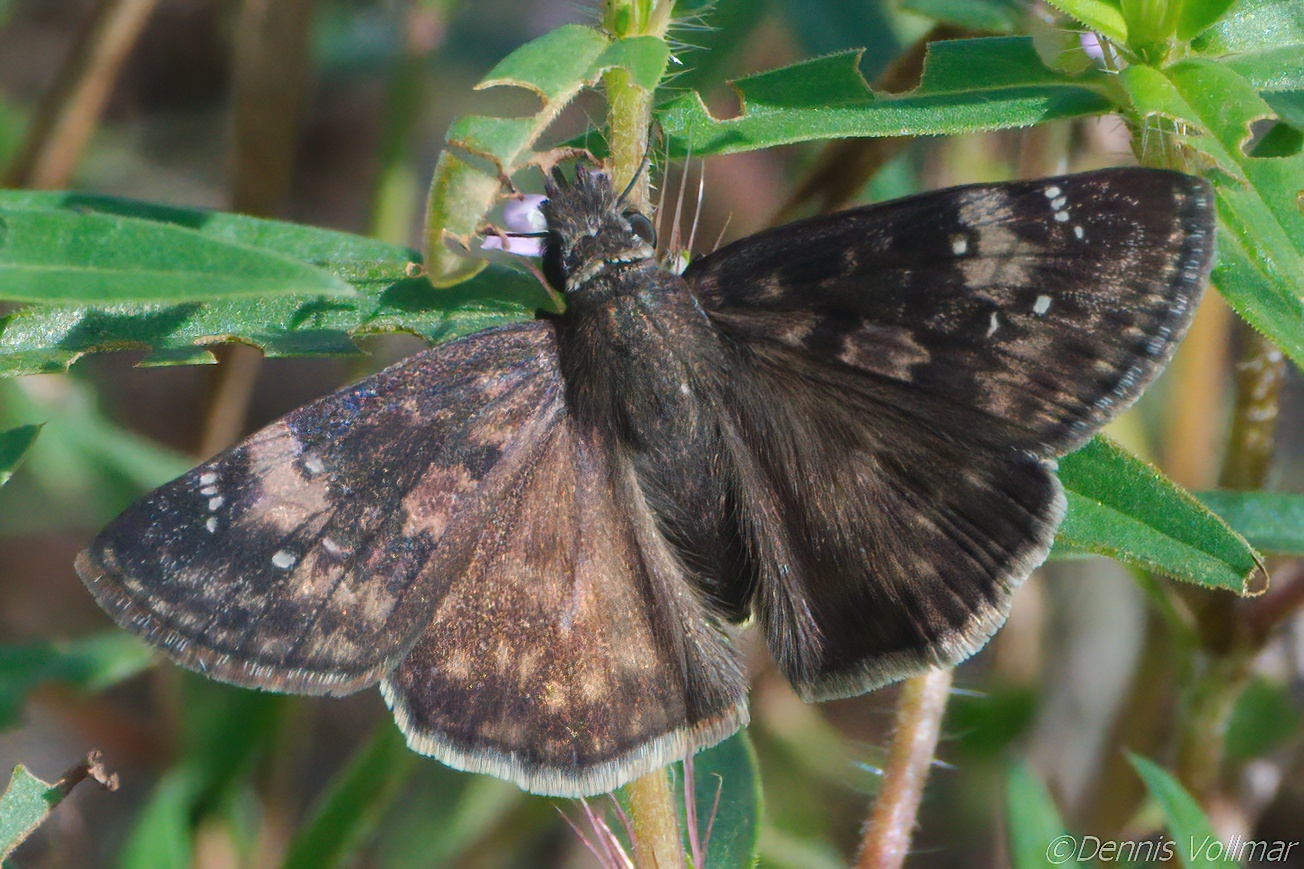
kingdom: Animalia
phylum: Arthropoda
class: Insecta
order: Lepidoptera
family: Hesperiidae
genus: Erynnis
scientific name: Erynnis zarucco
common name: Zarucco duskywing
